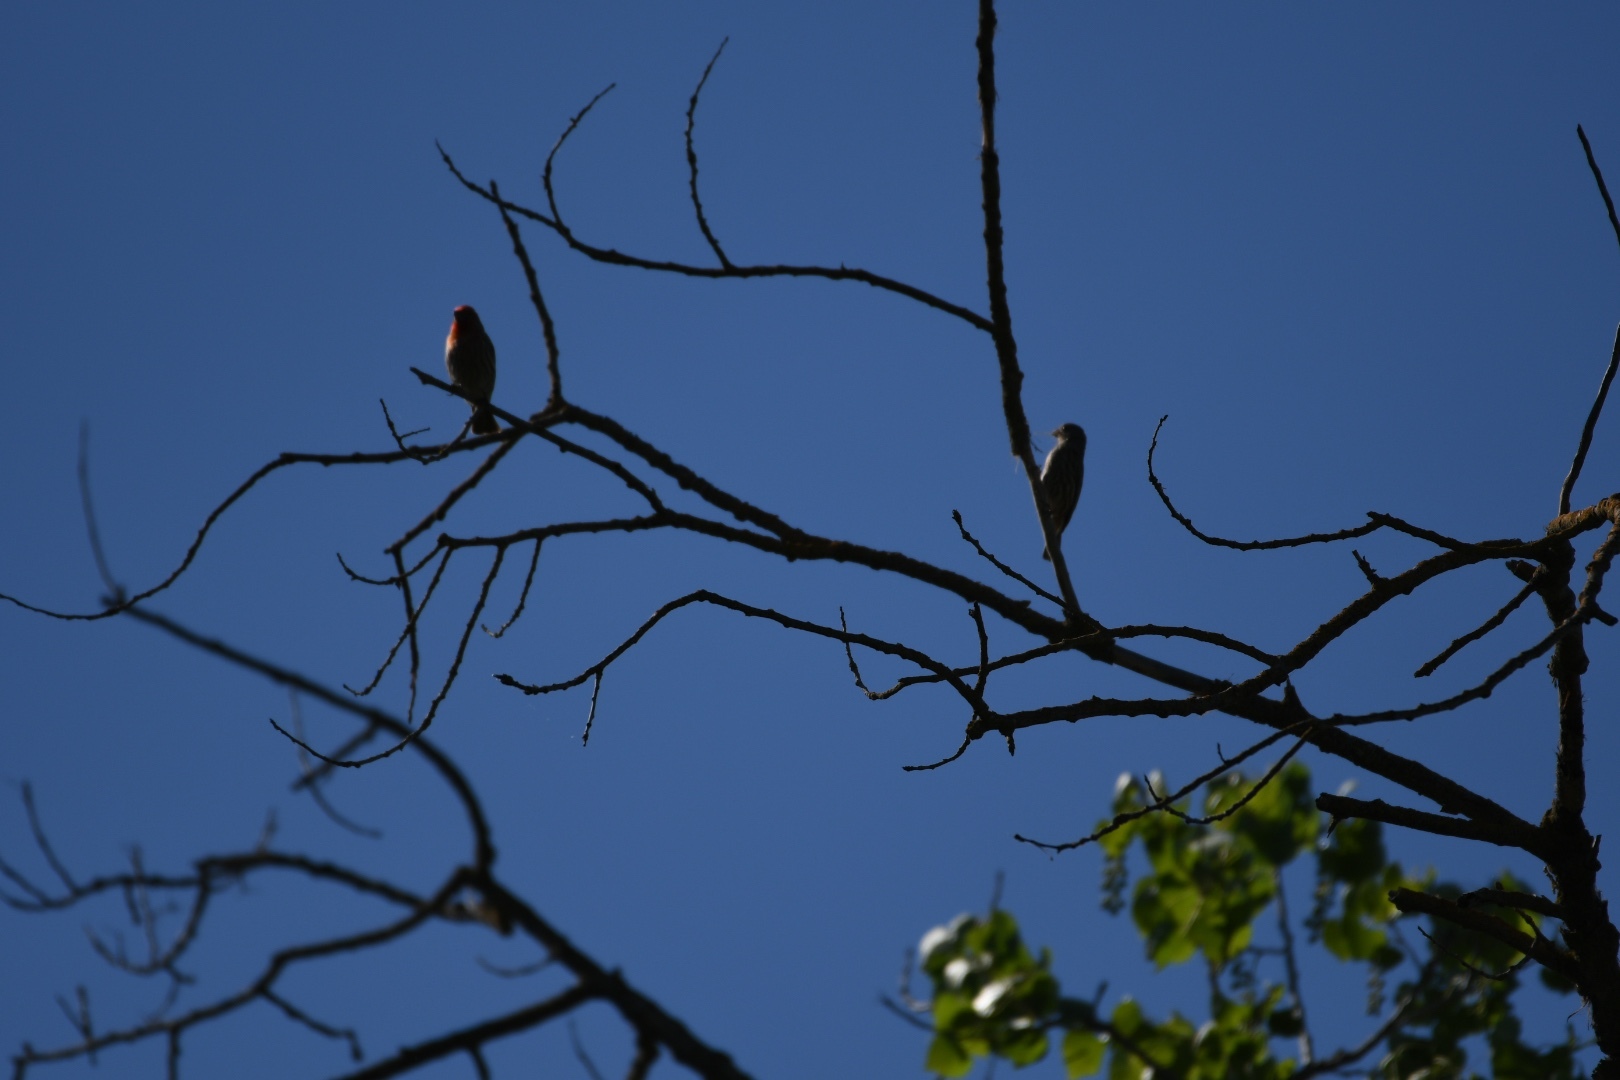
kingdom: Animalia
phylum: Chordata
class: Aves
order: Passeriformes
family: Fringillidae
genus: Haemorhous
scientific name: Haemorhous mexicanus
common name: House finch
